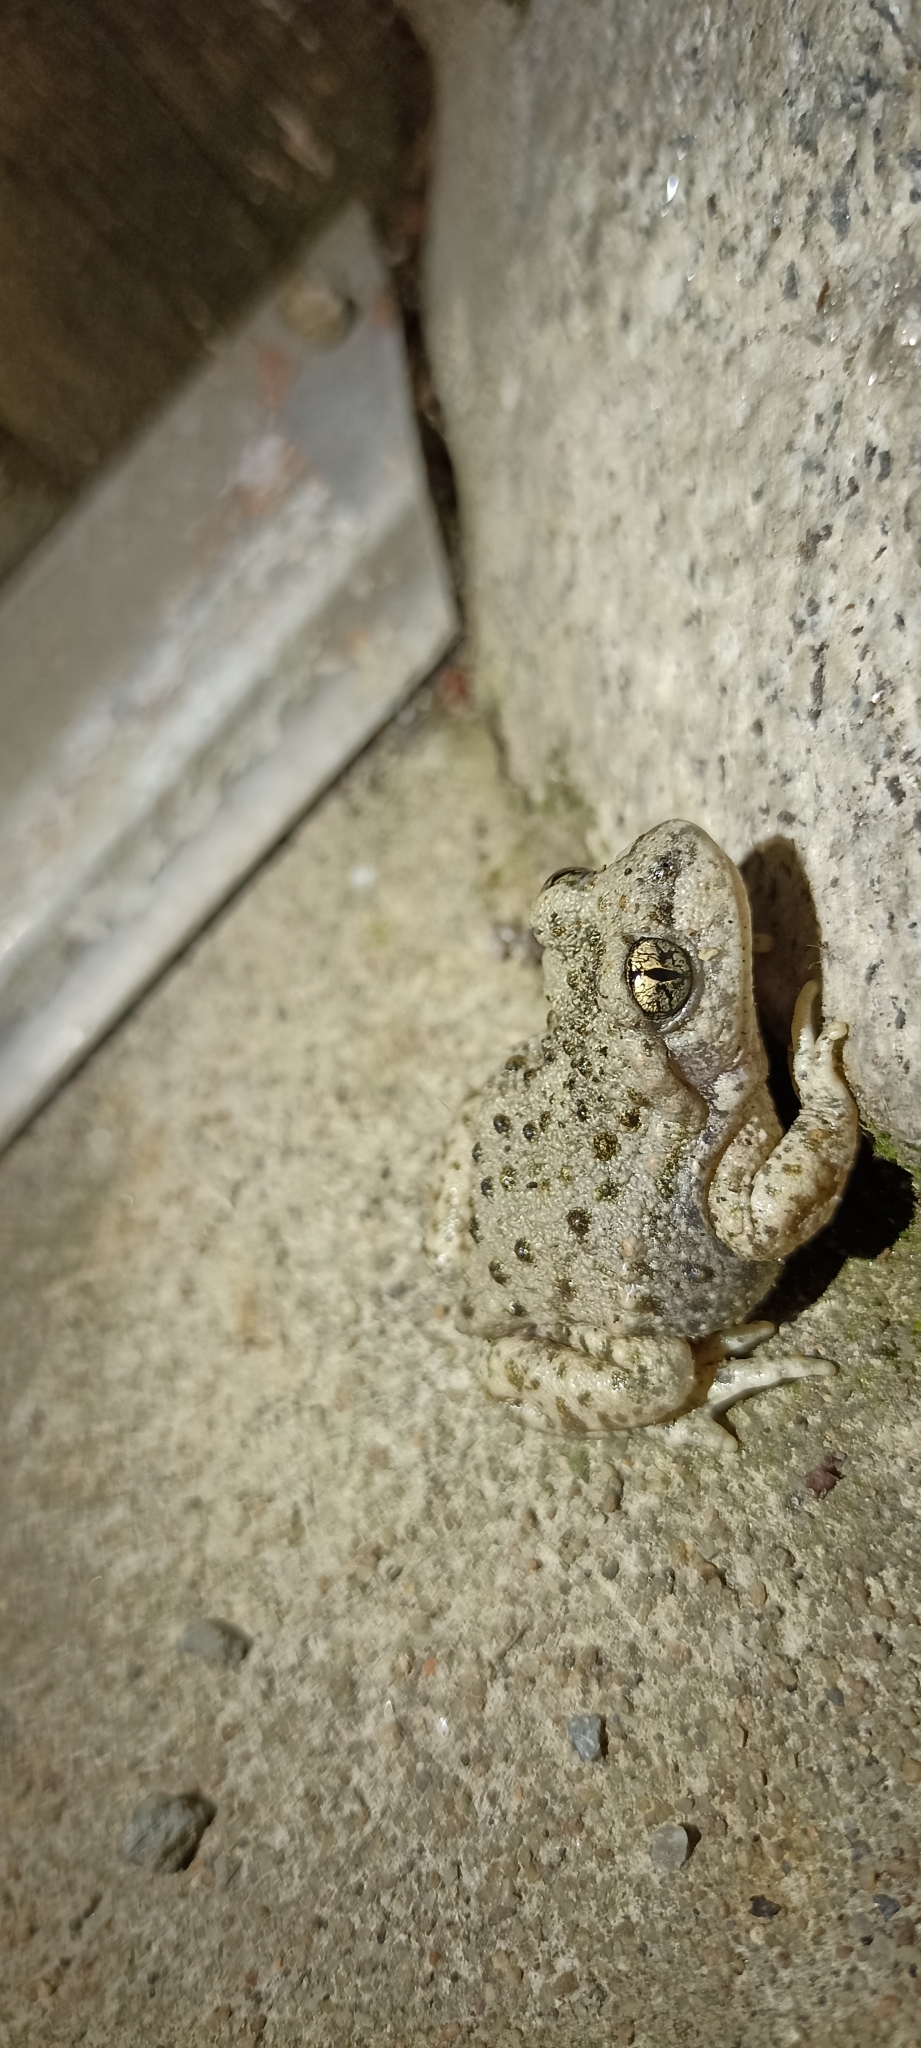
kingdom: Animalia
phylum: Chordata
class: Amphibia
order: Anura
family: Alytidae
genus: Alytes
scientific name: Alytes obstetricans
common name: Midwife toad
